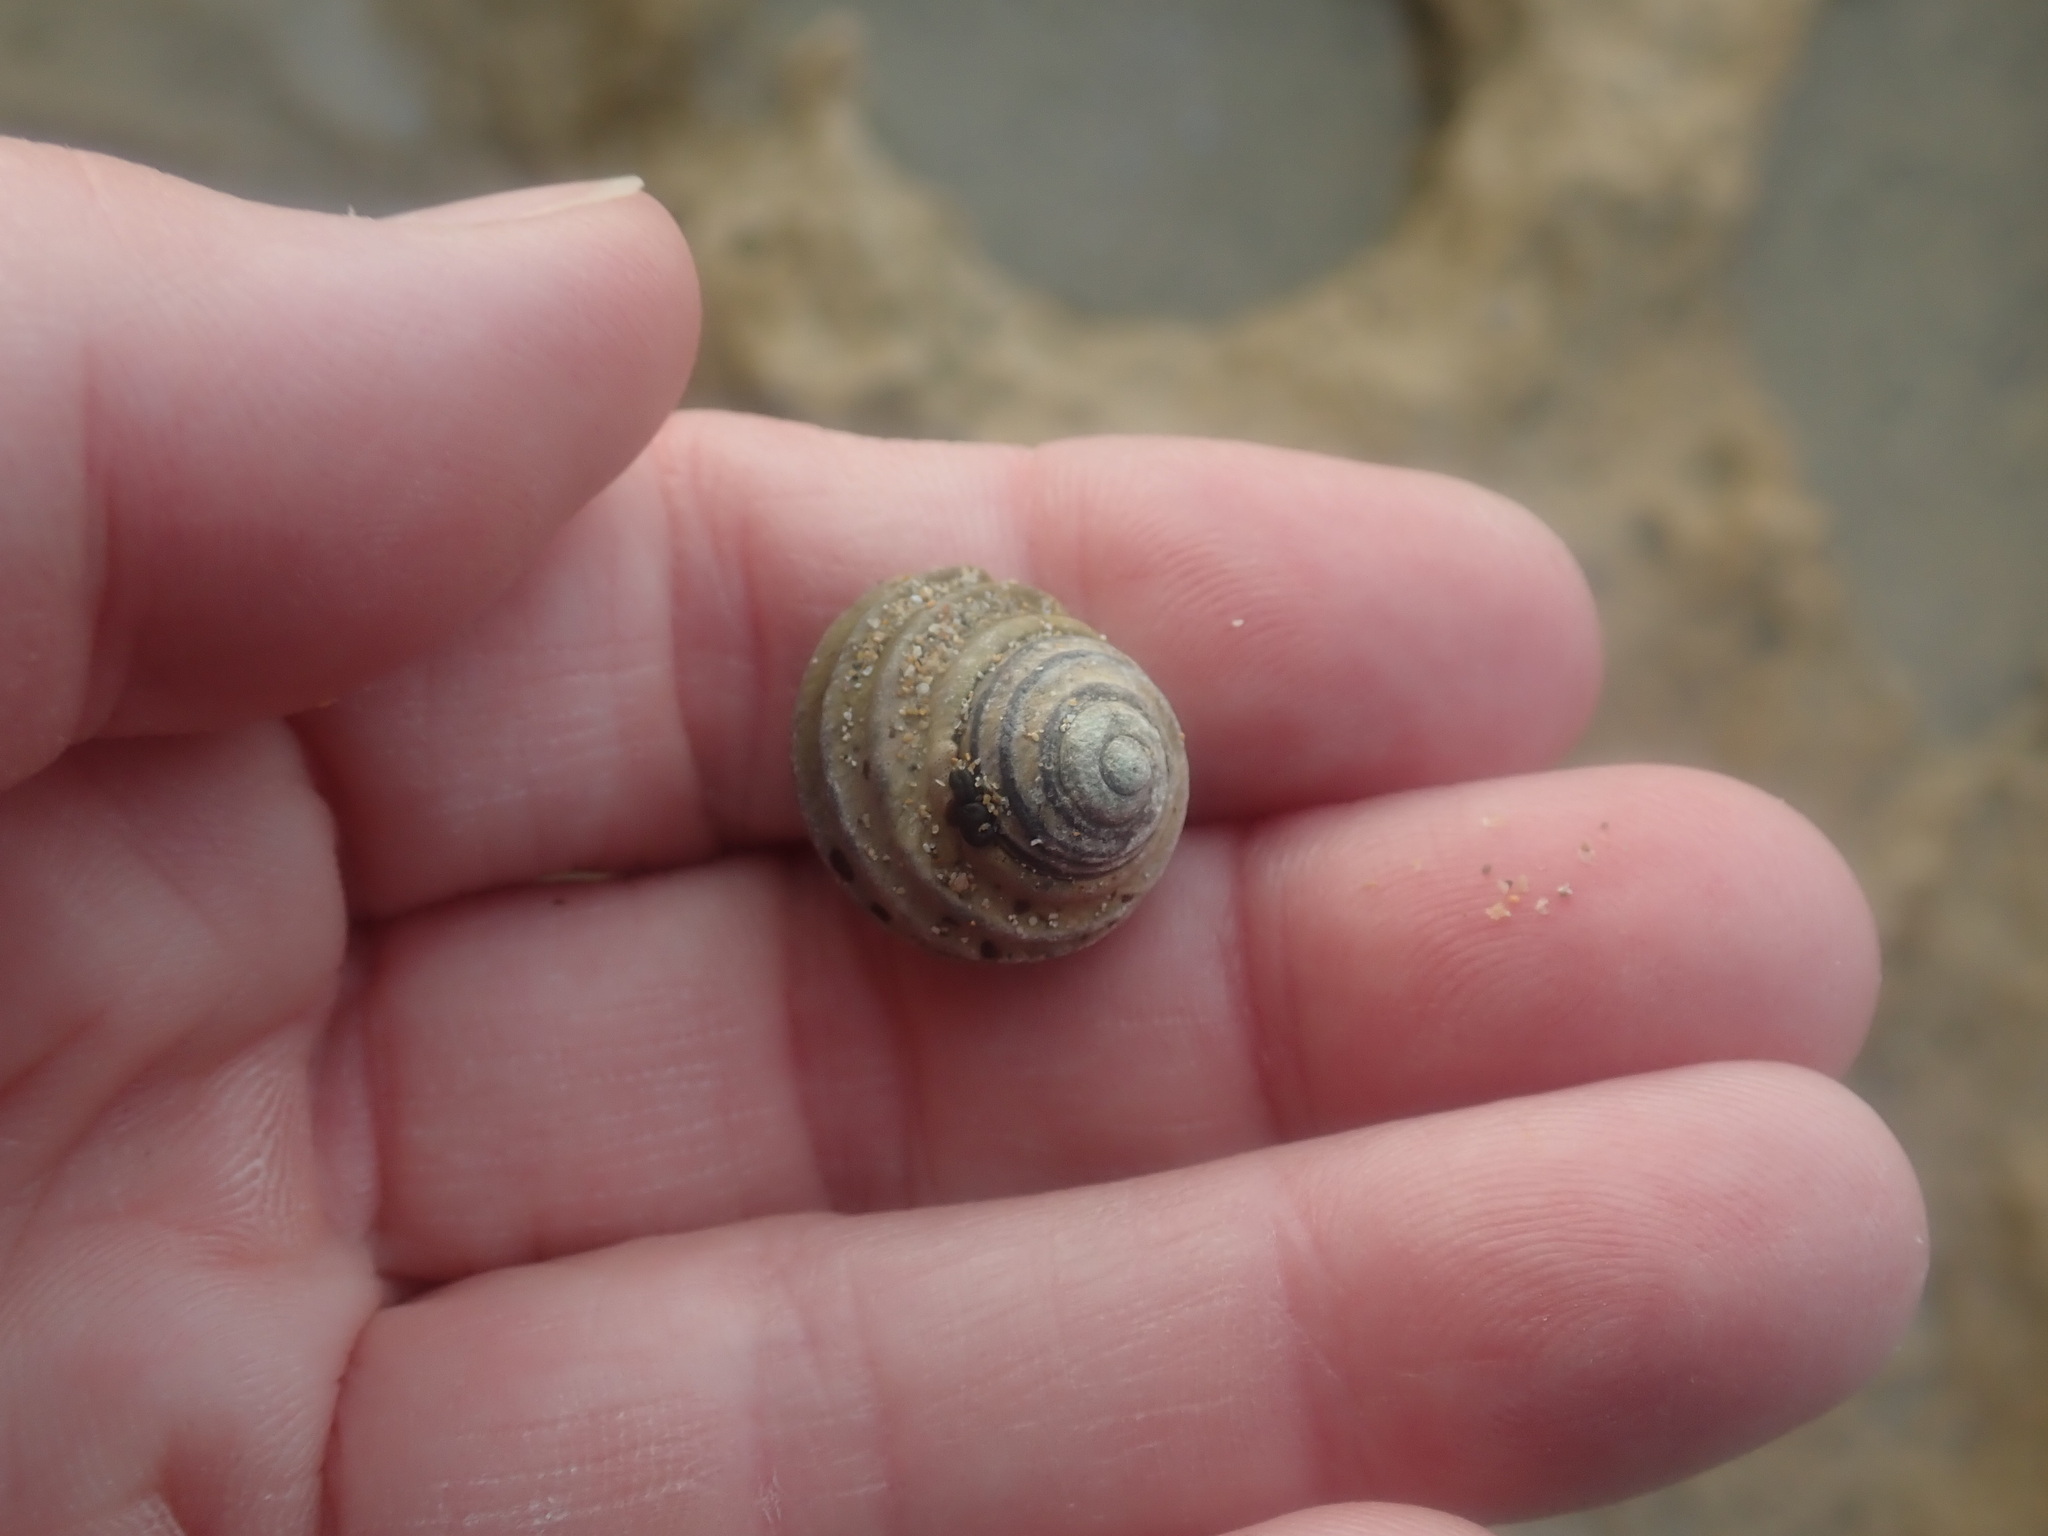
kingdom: Animalia
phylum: Mollusca
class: Gastropoda
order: Trochida
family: Trochidae
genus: Austrocochlea
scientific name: Austrocochlea constricta
